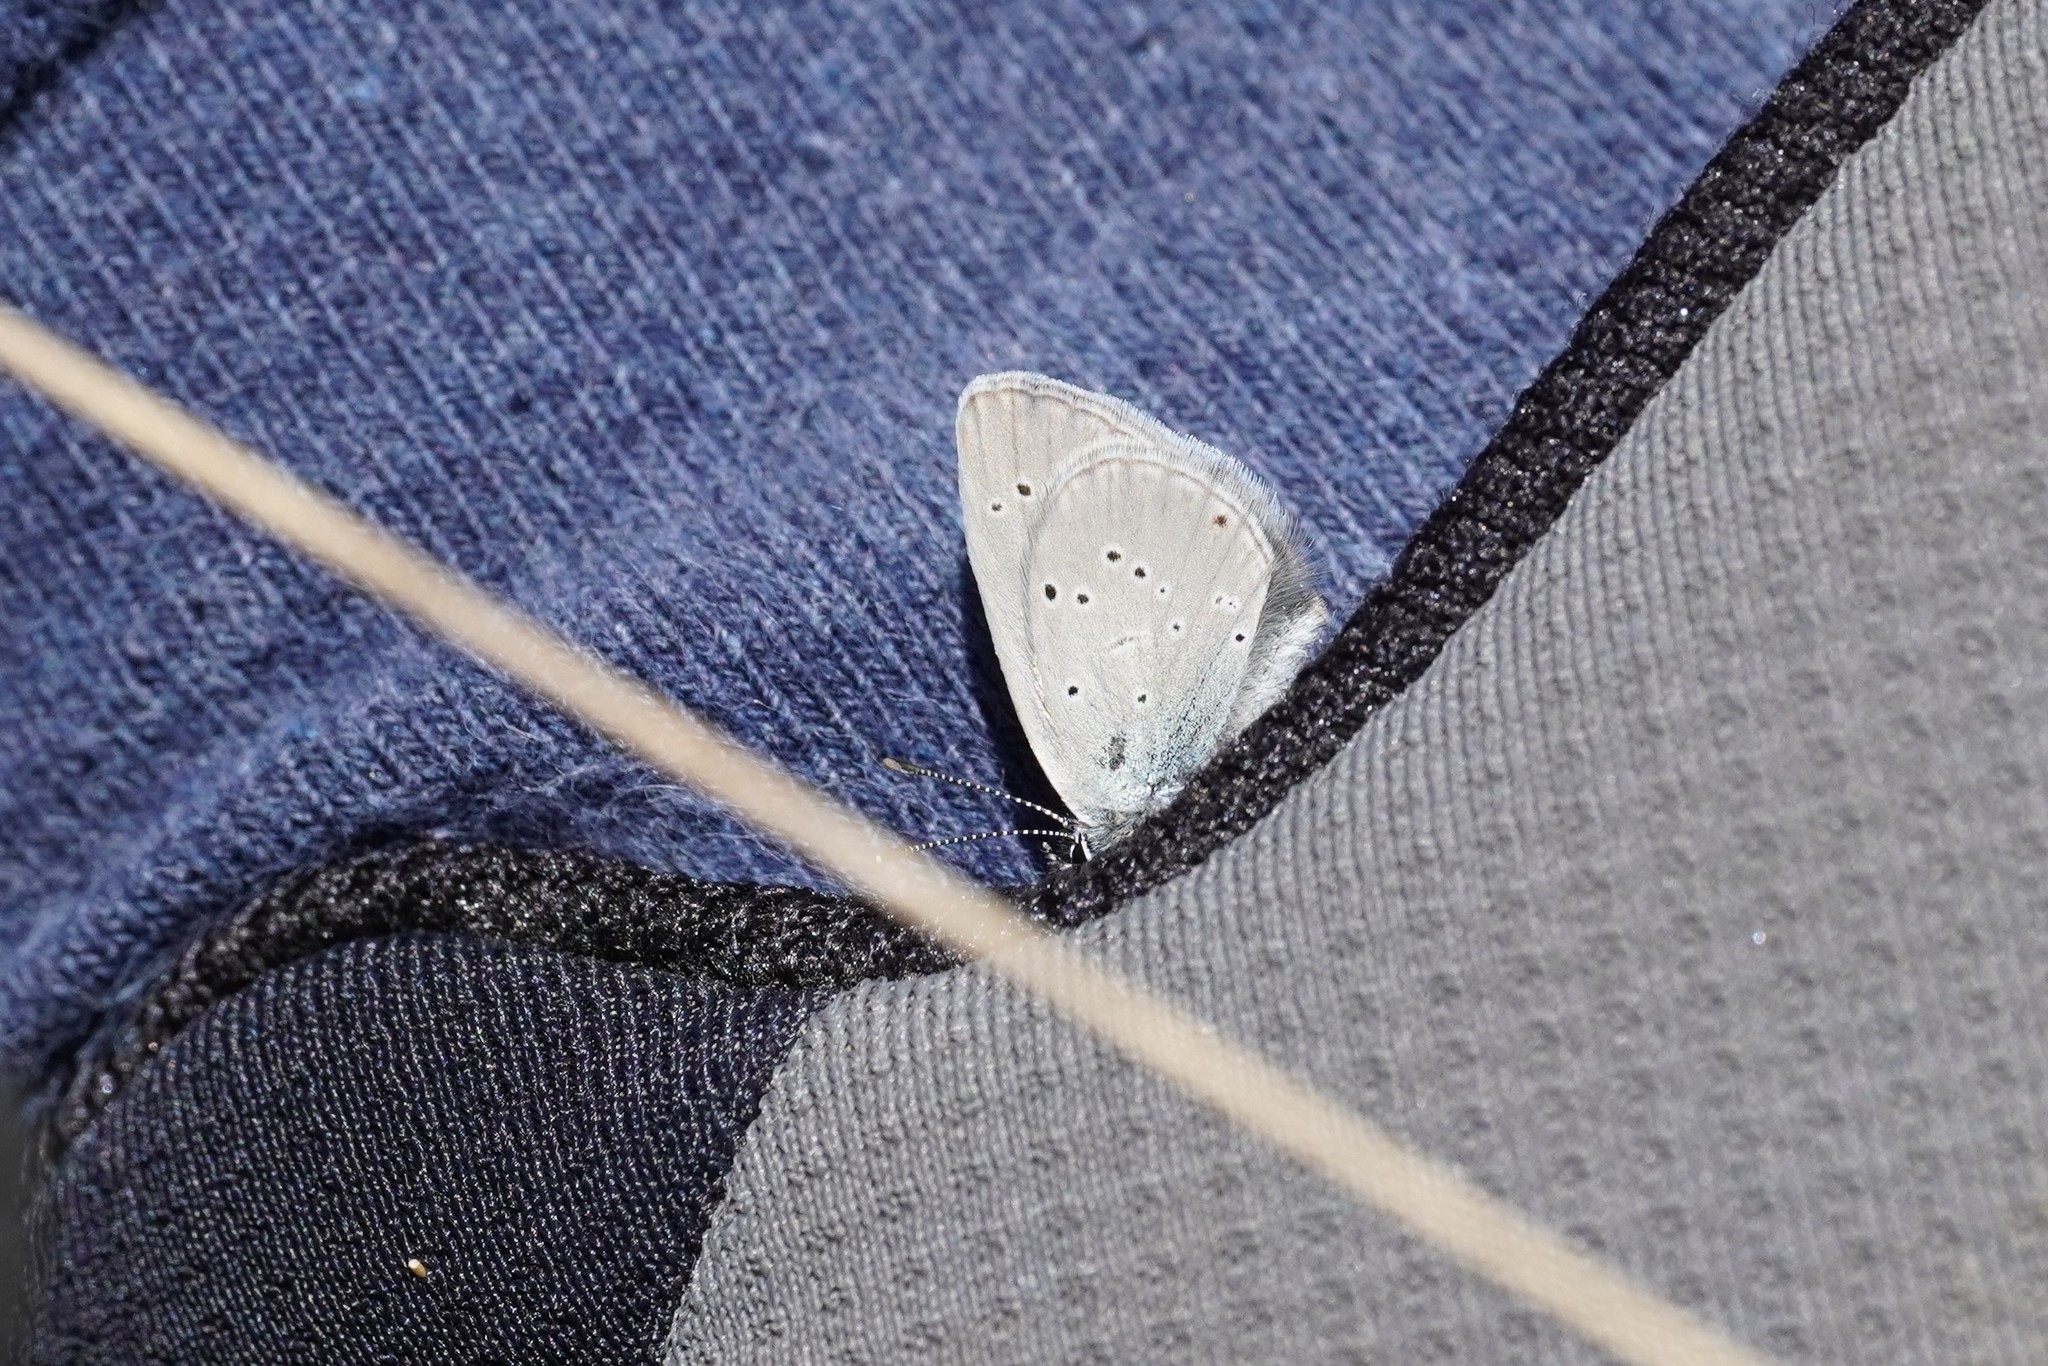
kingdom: Animalia
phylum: Arthropoda
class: Insecta
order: Lepidoptera
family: Lycaenidae
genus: Cupido
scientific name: Cupido minimus
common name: Small blue
